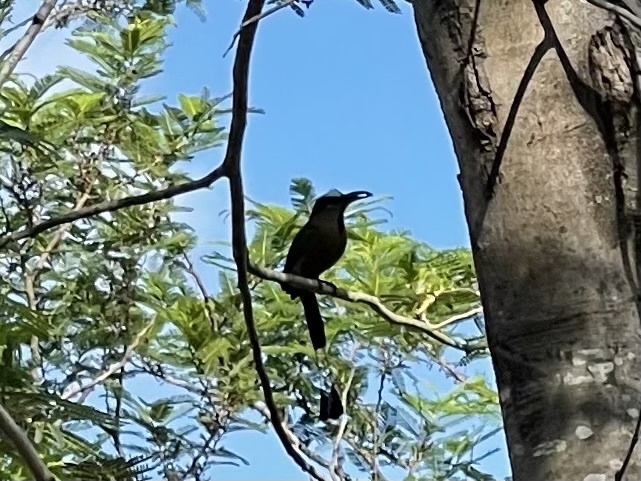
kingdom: Animalia
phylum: Chordata
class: Aves
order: Coraciiformes
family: Momotidae
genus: Eumomota
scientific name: Eumomota superciliosa
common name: Turquoise-browed motmot
